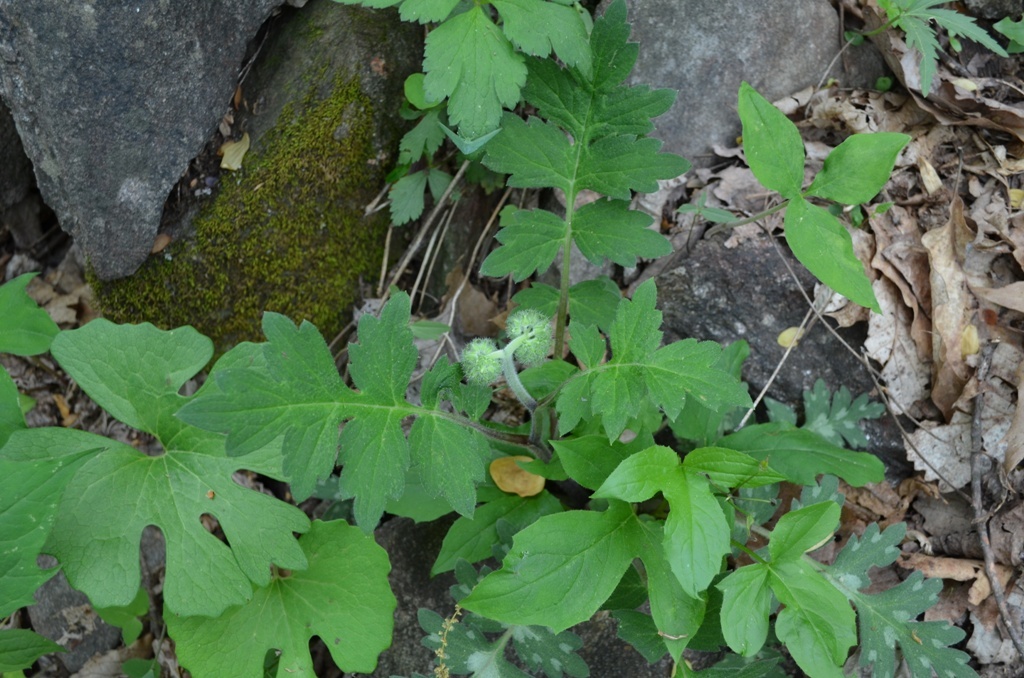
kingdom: Plantae
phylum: Tracheophyta
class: Magnoliopsida
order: Boraginales
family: Hydrophyllaceae
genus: Hydrophyllum
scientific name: Hydrophyllum macrophyllum
